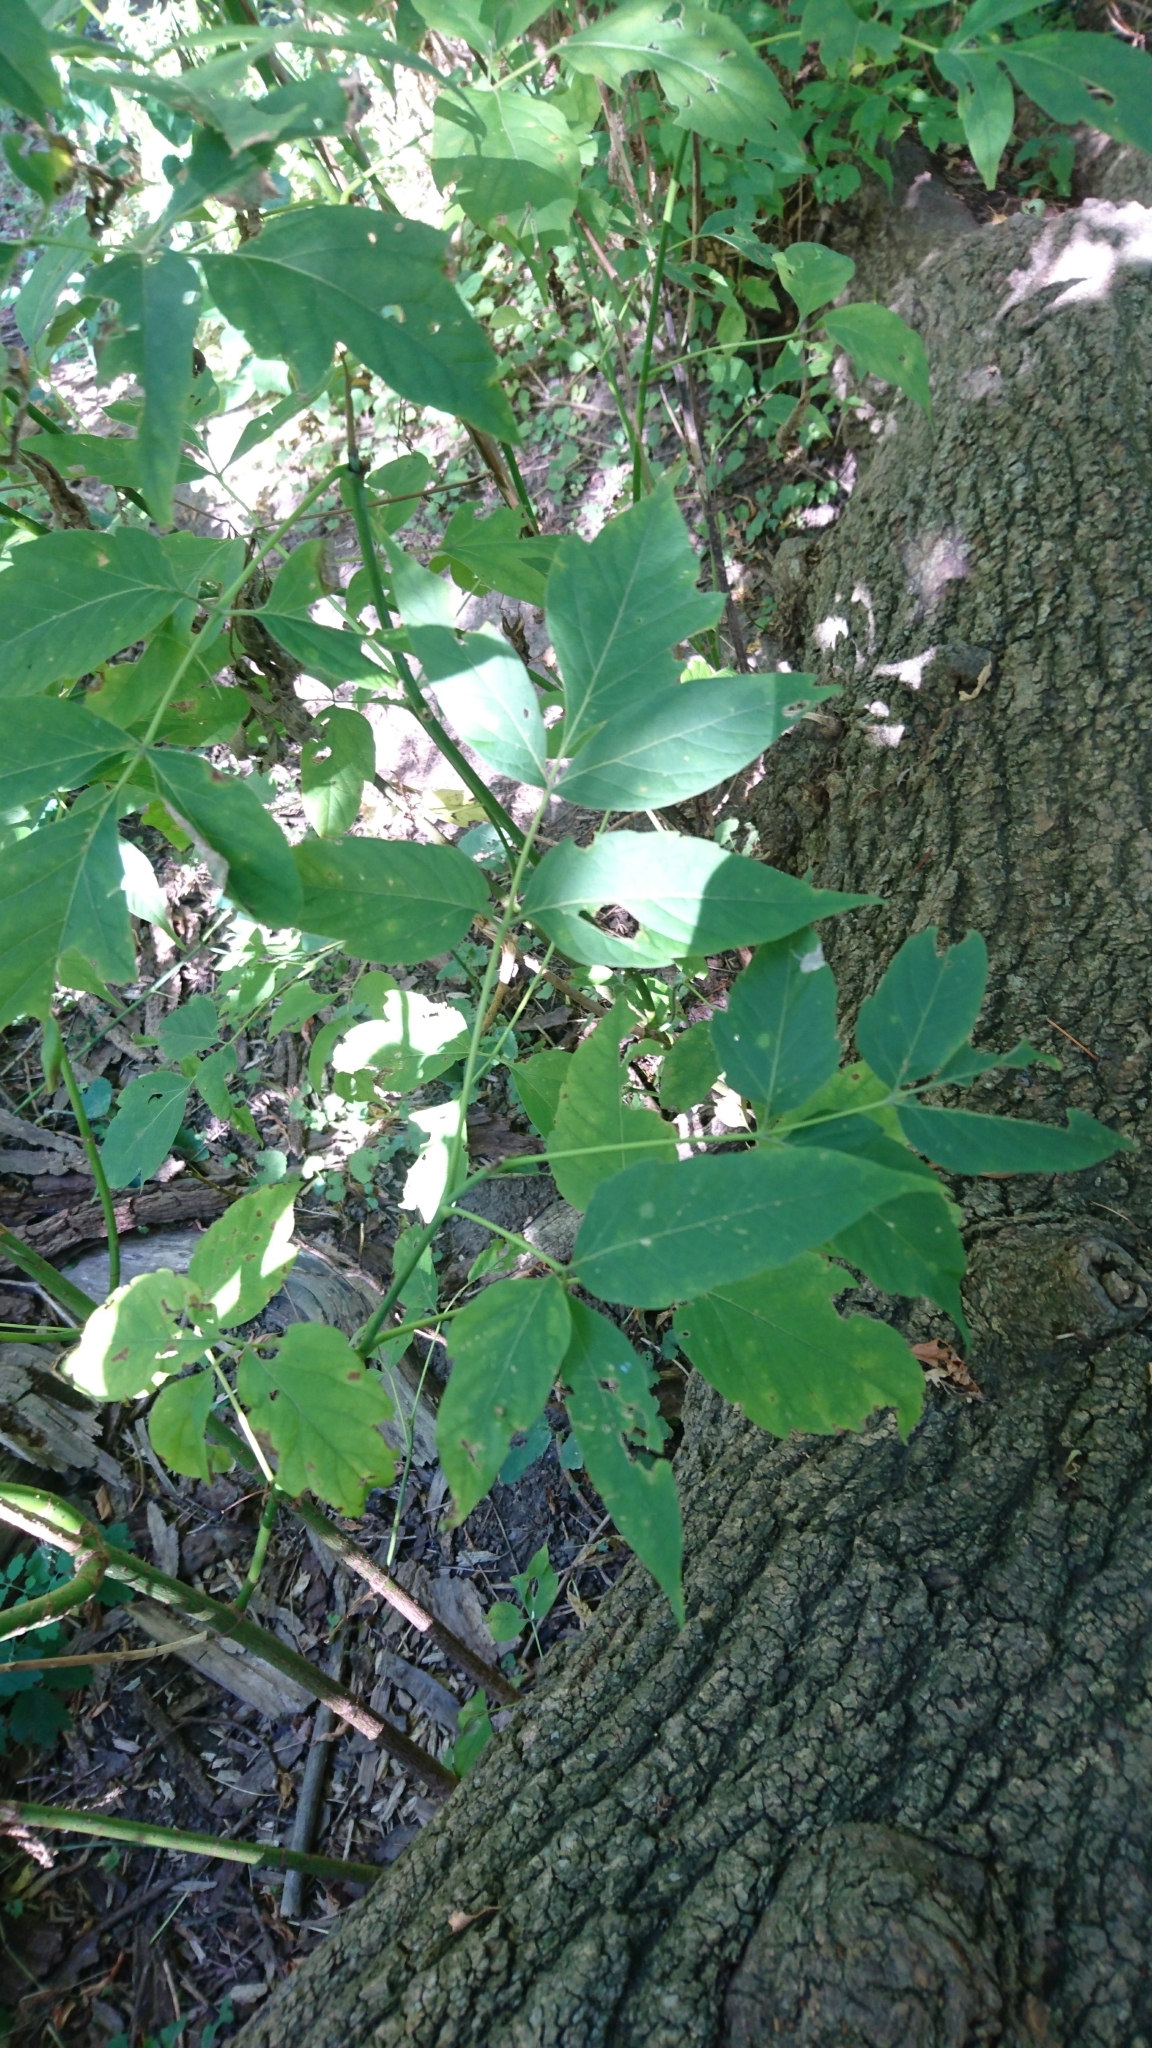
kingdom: Plantae
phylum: Tracheophyta
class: Magnoliopsida
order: Sapindales
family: Sapindaceae
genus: Acer
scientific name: Acer negundo
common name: Ashleaf maple
